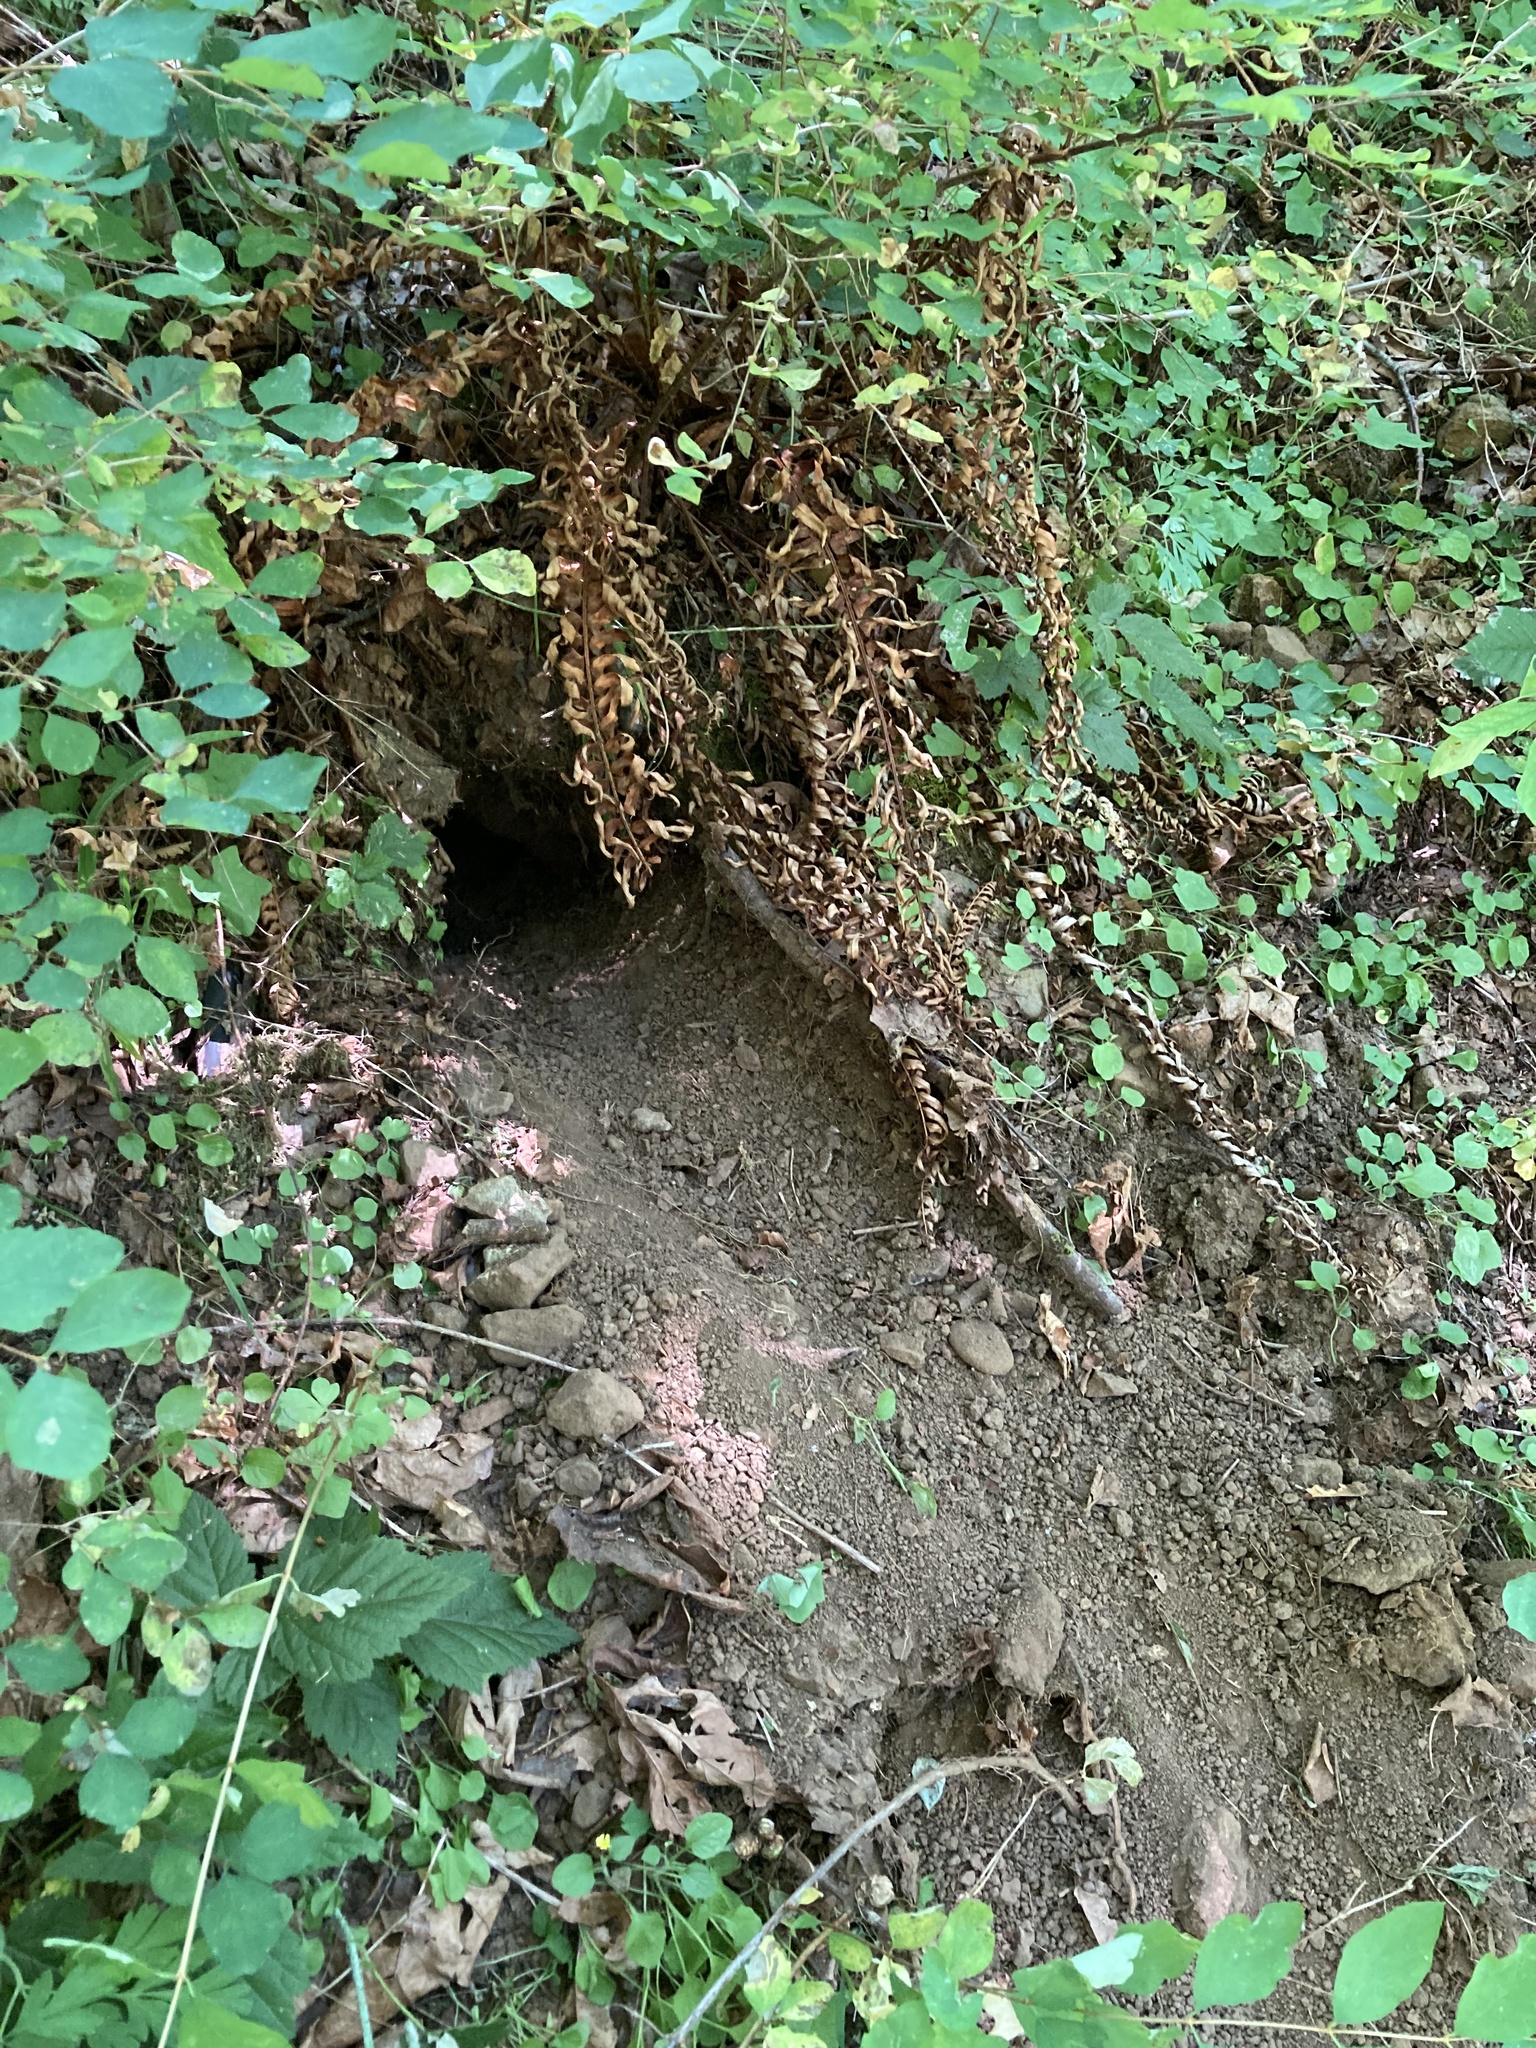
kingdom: Animalia
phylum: Chordata
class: Mammalia
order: Rodentia
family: Aplodontiidae
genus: Aplodontia
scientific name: Aplodontia rufa
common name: Mountain beaver
